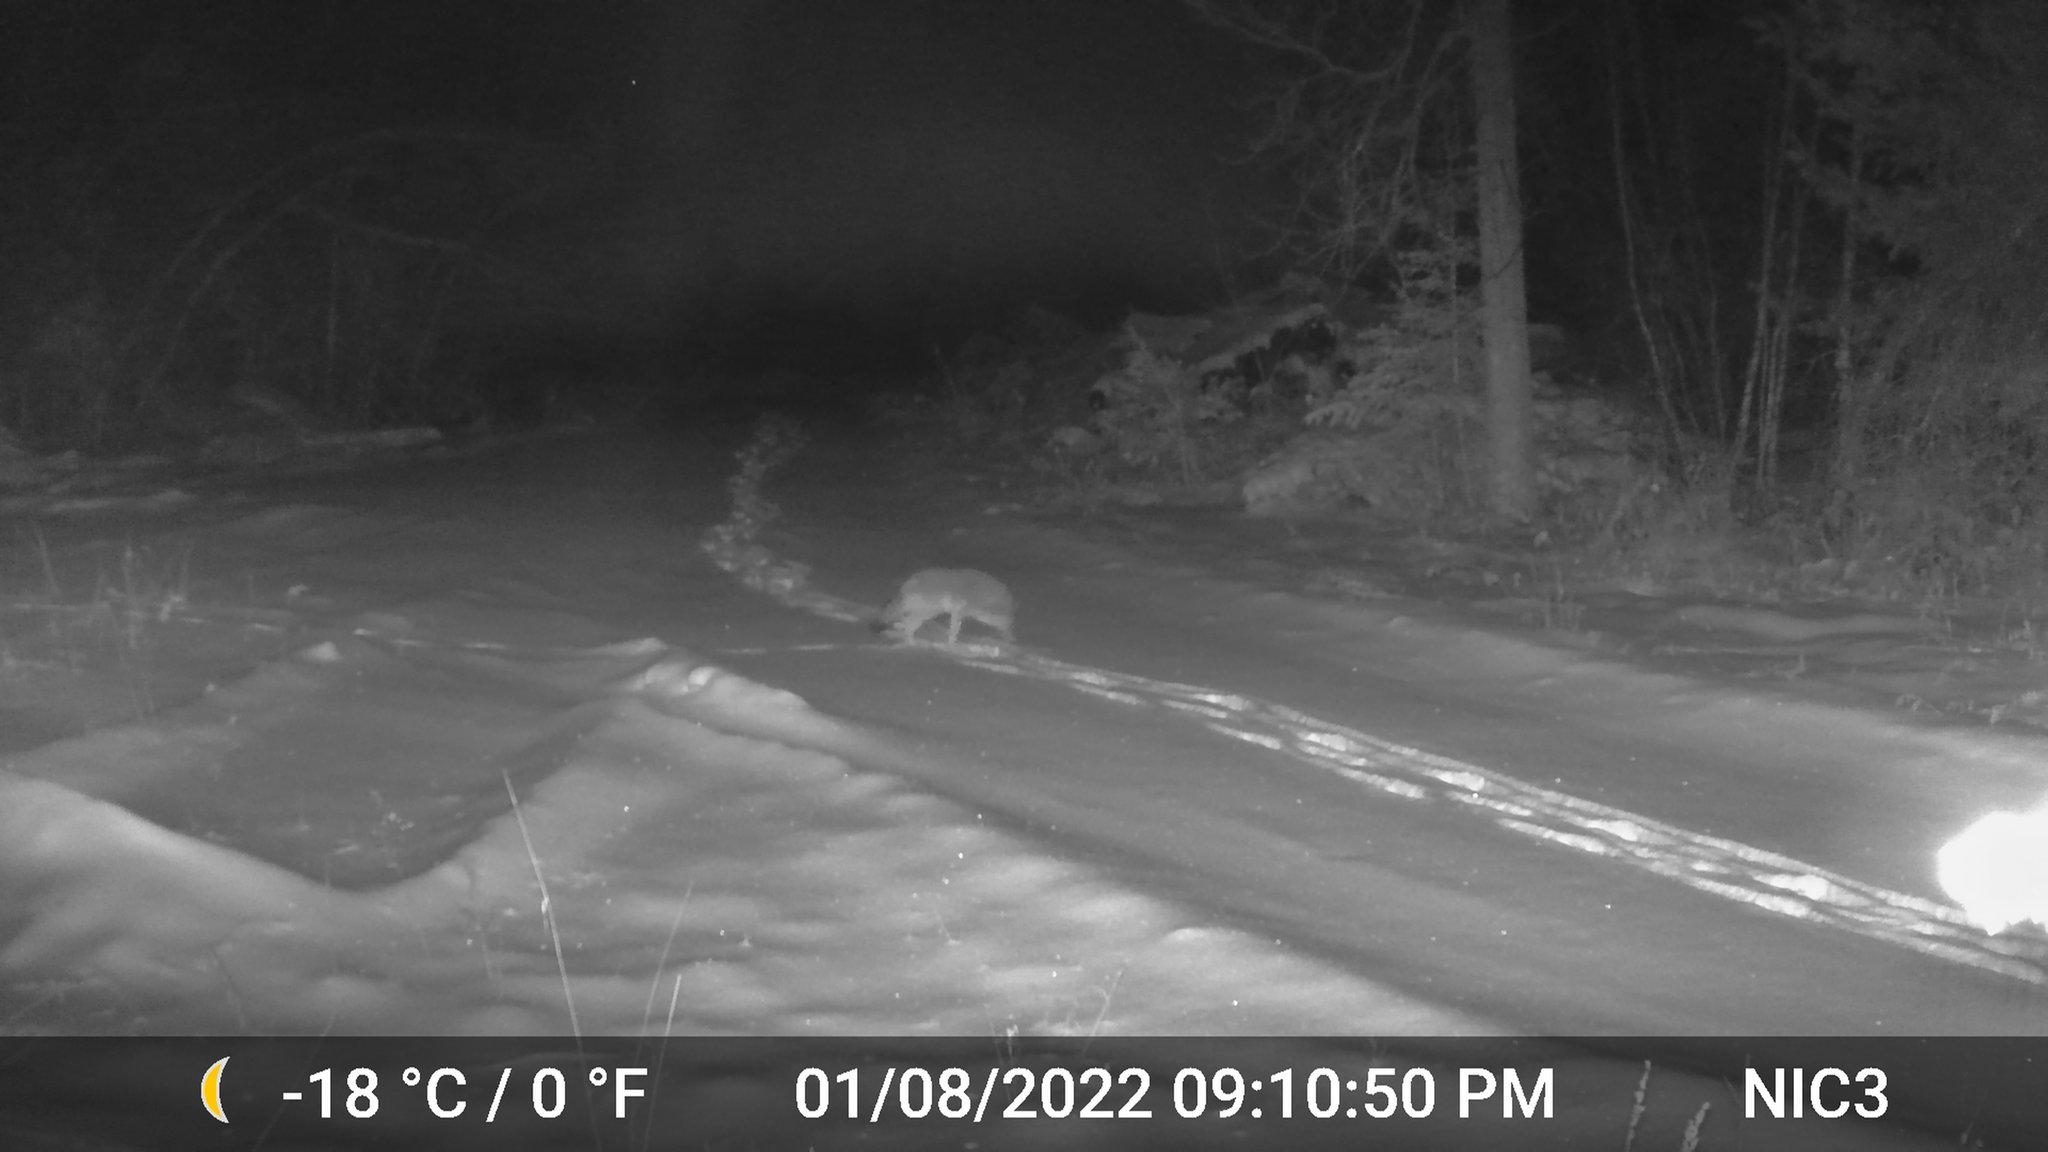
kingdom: Animalia
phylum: Chordata
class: Mammalia
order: Carnivora
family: Canidae
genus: Canis
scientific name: Canis latrans
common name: Coyote
